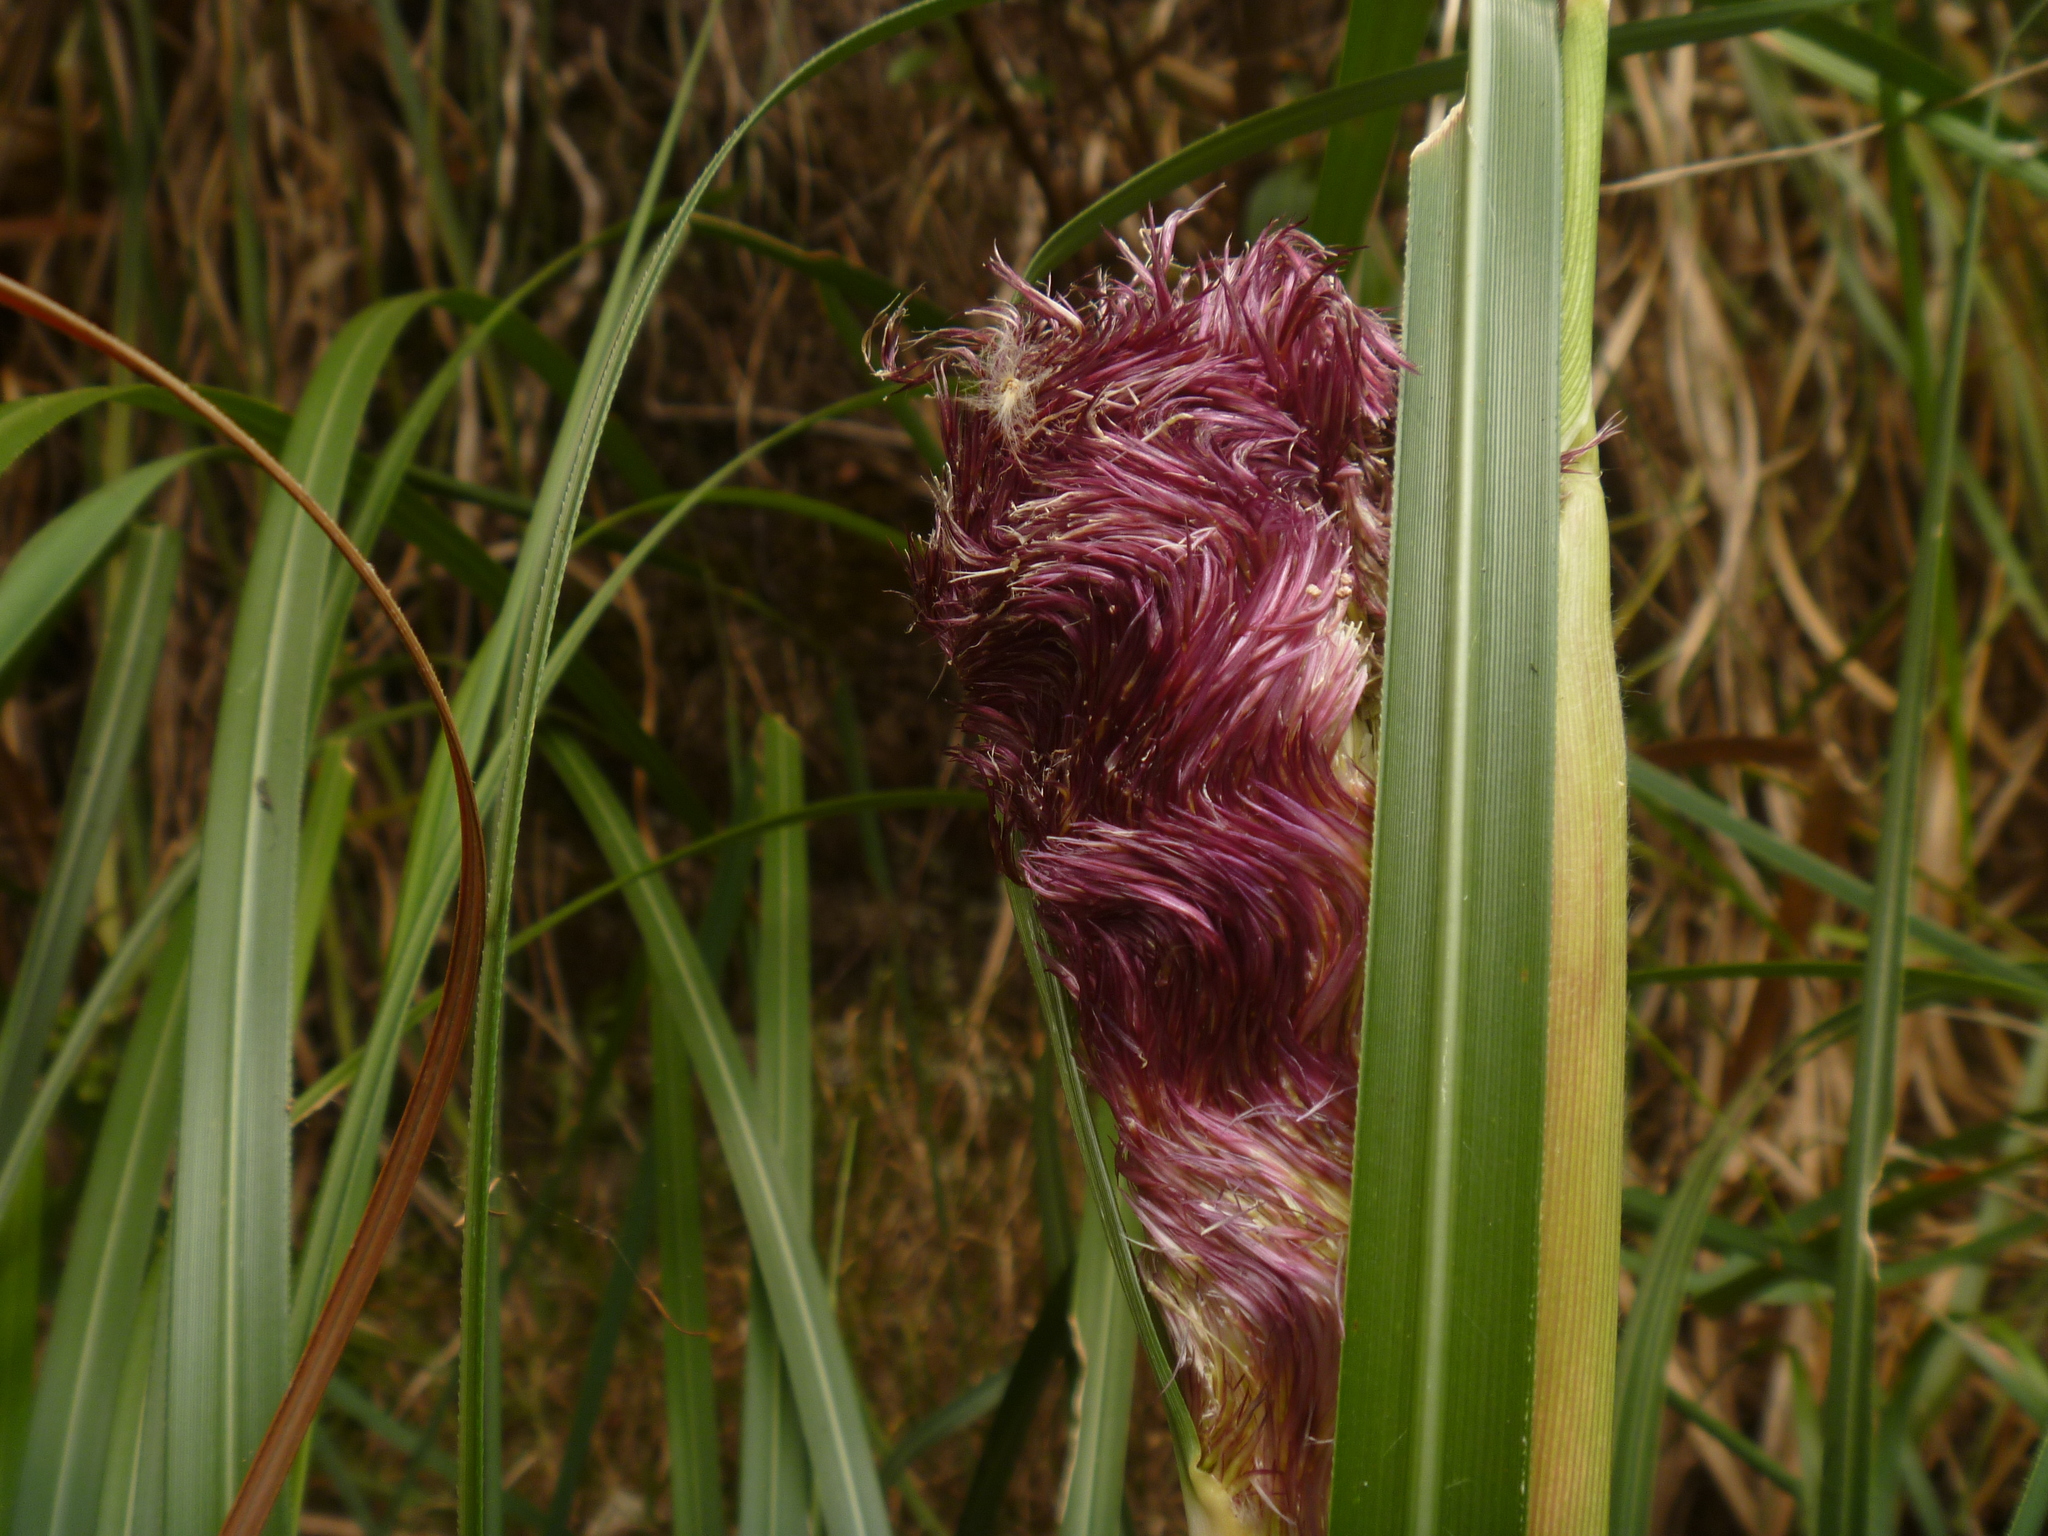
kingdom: Plantae
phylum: Tracheophyta
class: Liliopsida
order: Poales
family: Poaceae
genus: Cortaderia
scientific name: Cortaderia jubata
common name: Purple pampas grass
